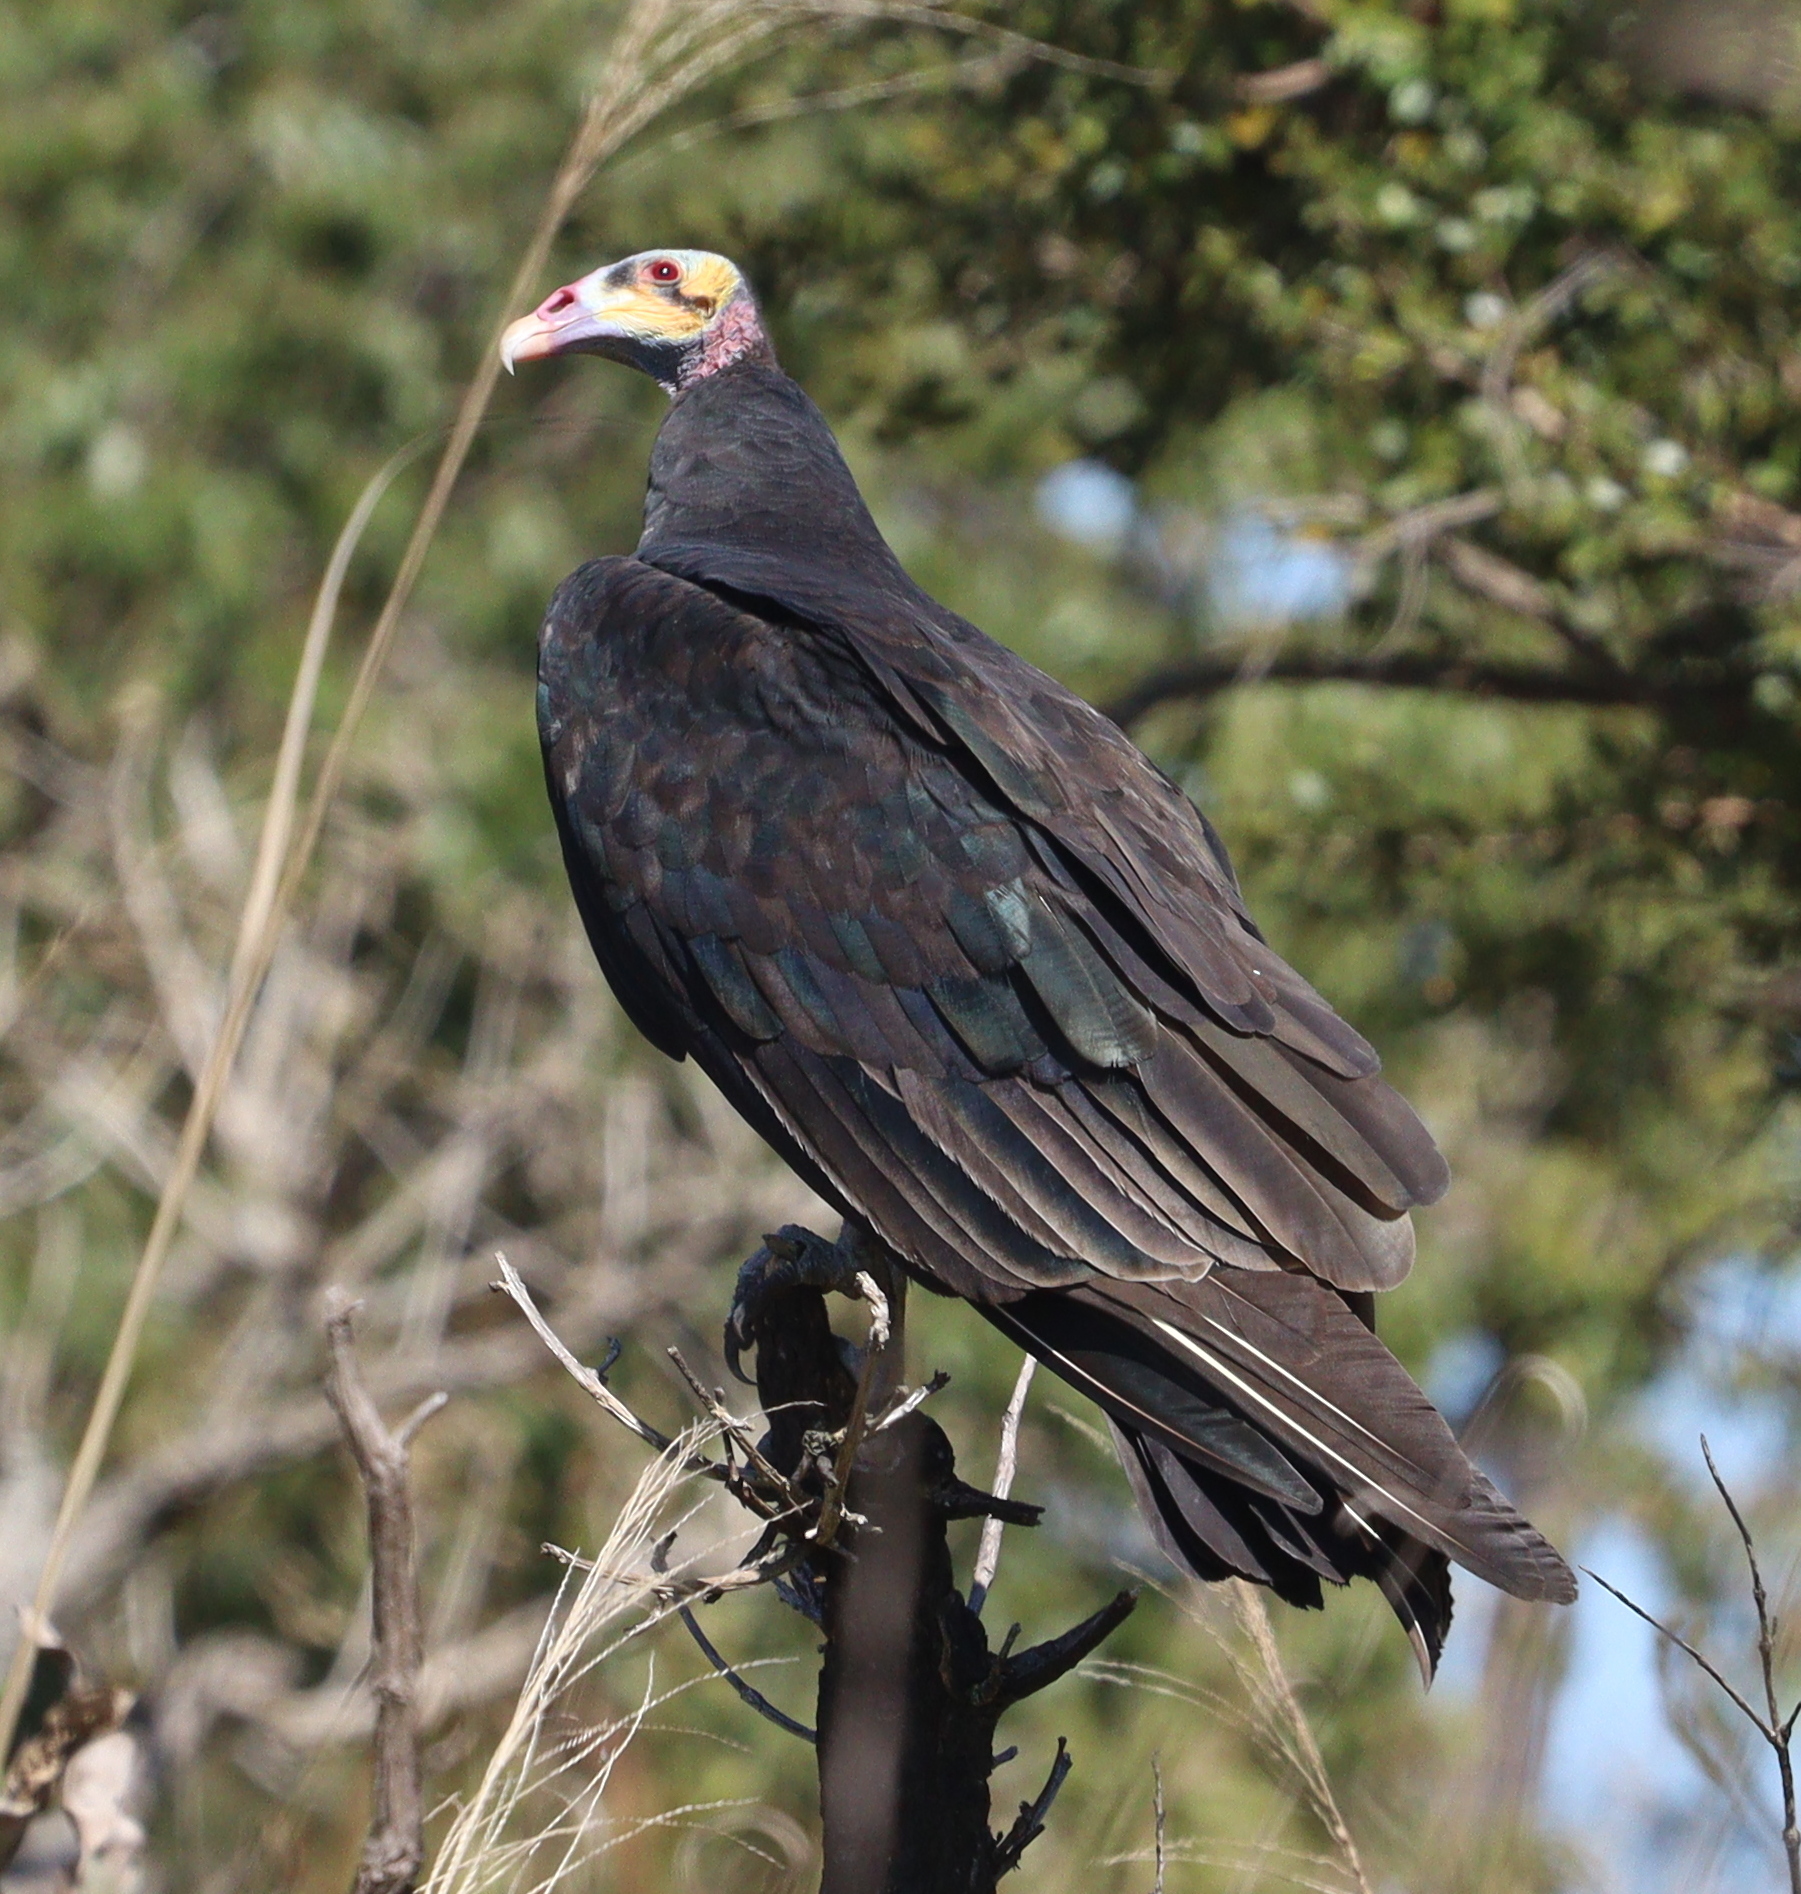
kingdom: Animalia
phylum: Chordata
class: Aves
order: Accipitriformes
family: Cathartidae
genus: Cathartes
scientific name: Cathartes burrovianus
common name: Lesser yellow-headed vulture
